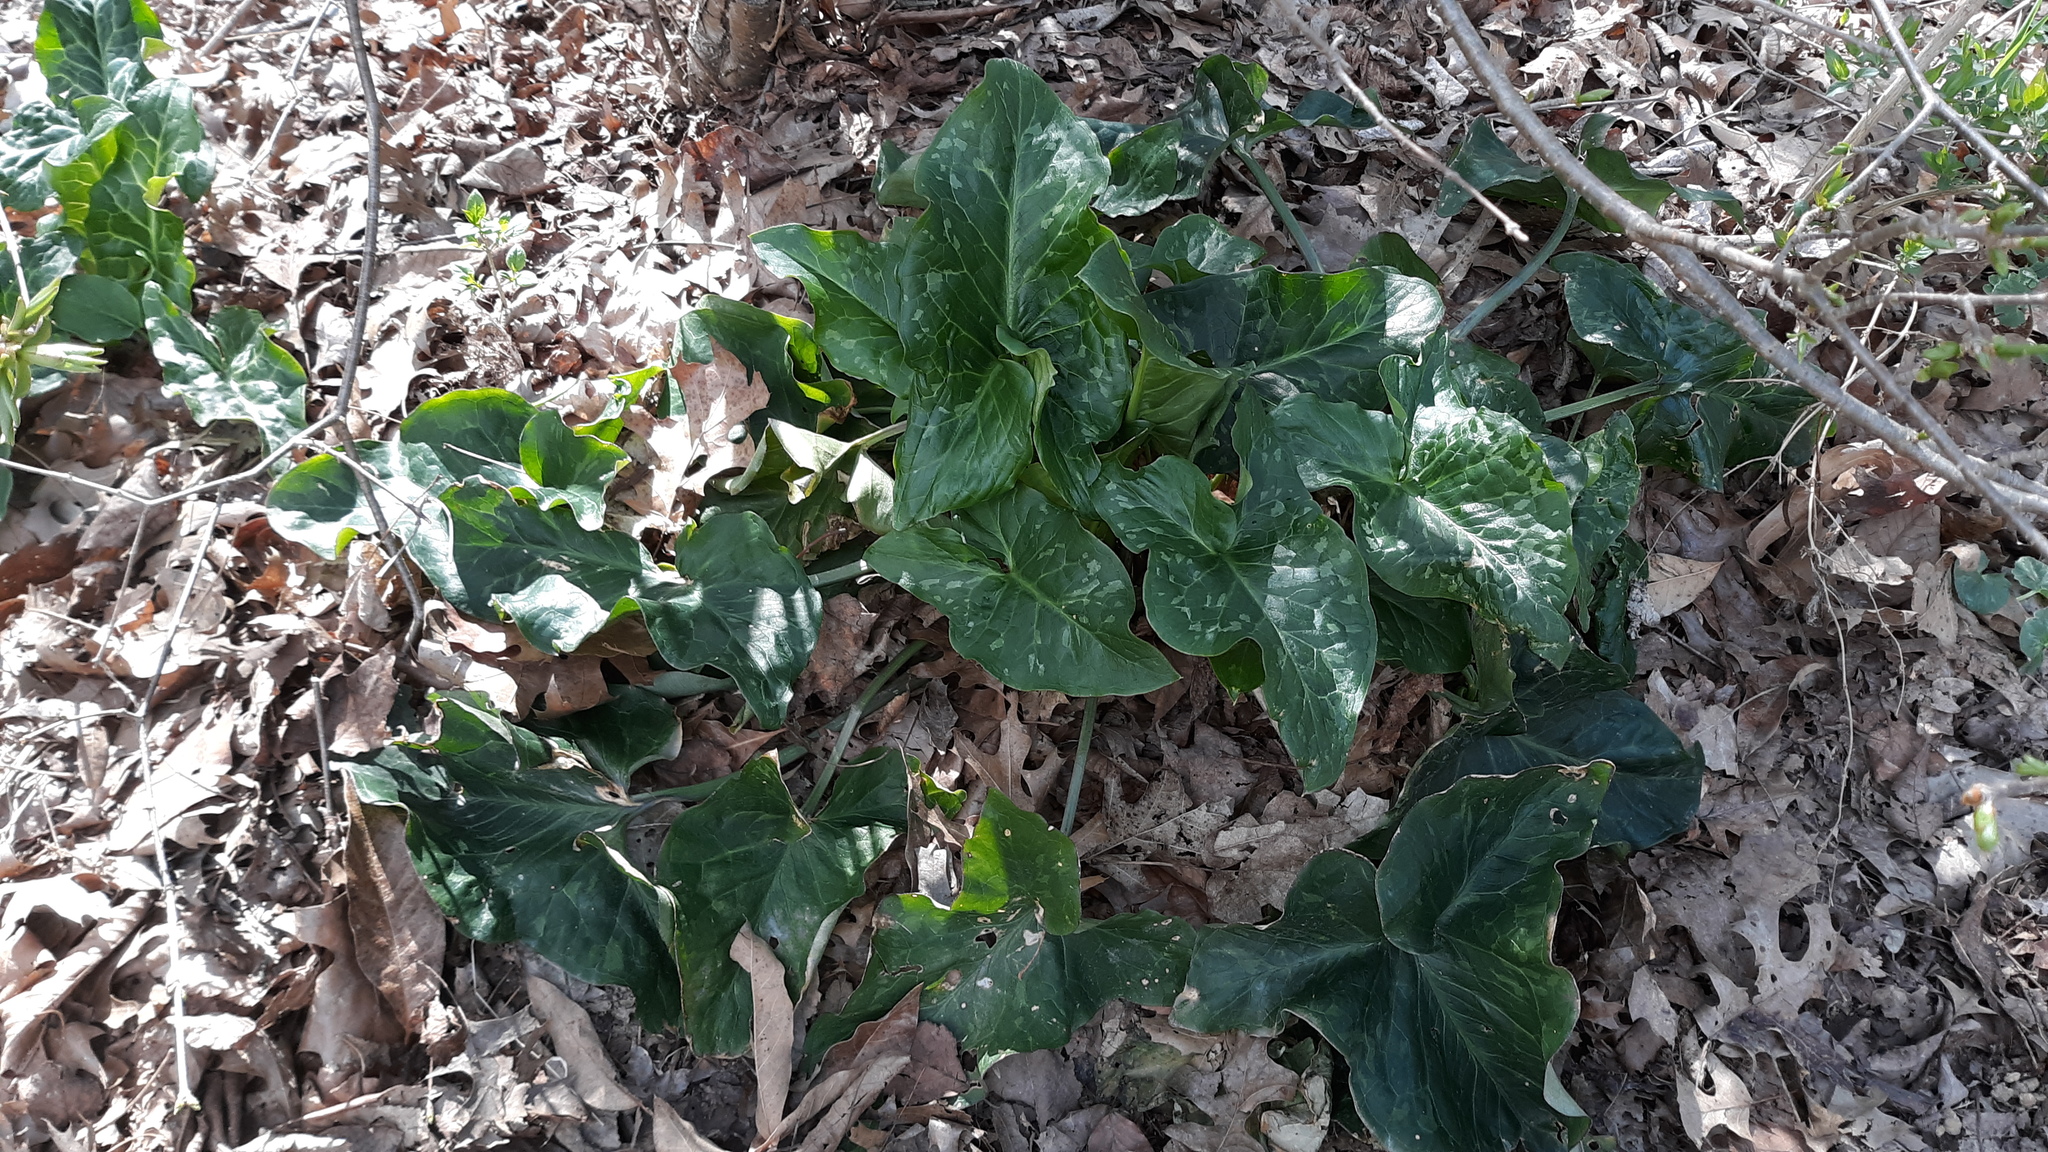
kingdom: Plantae
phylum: Tracheophyta
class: Liliopsida
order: Alismatales
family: Araceae
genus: Arum
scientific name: Arum italicum
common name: Italian lords-and-ladies
